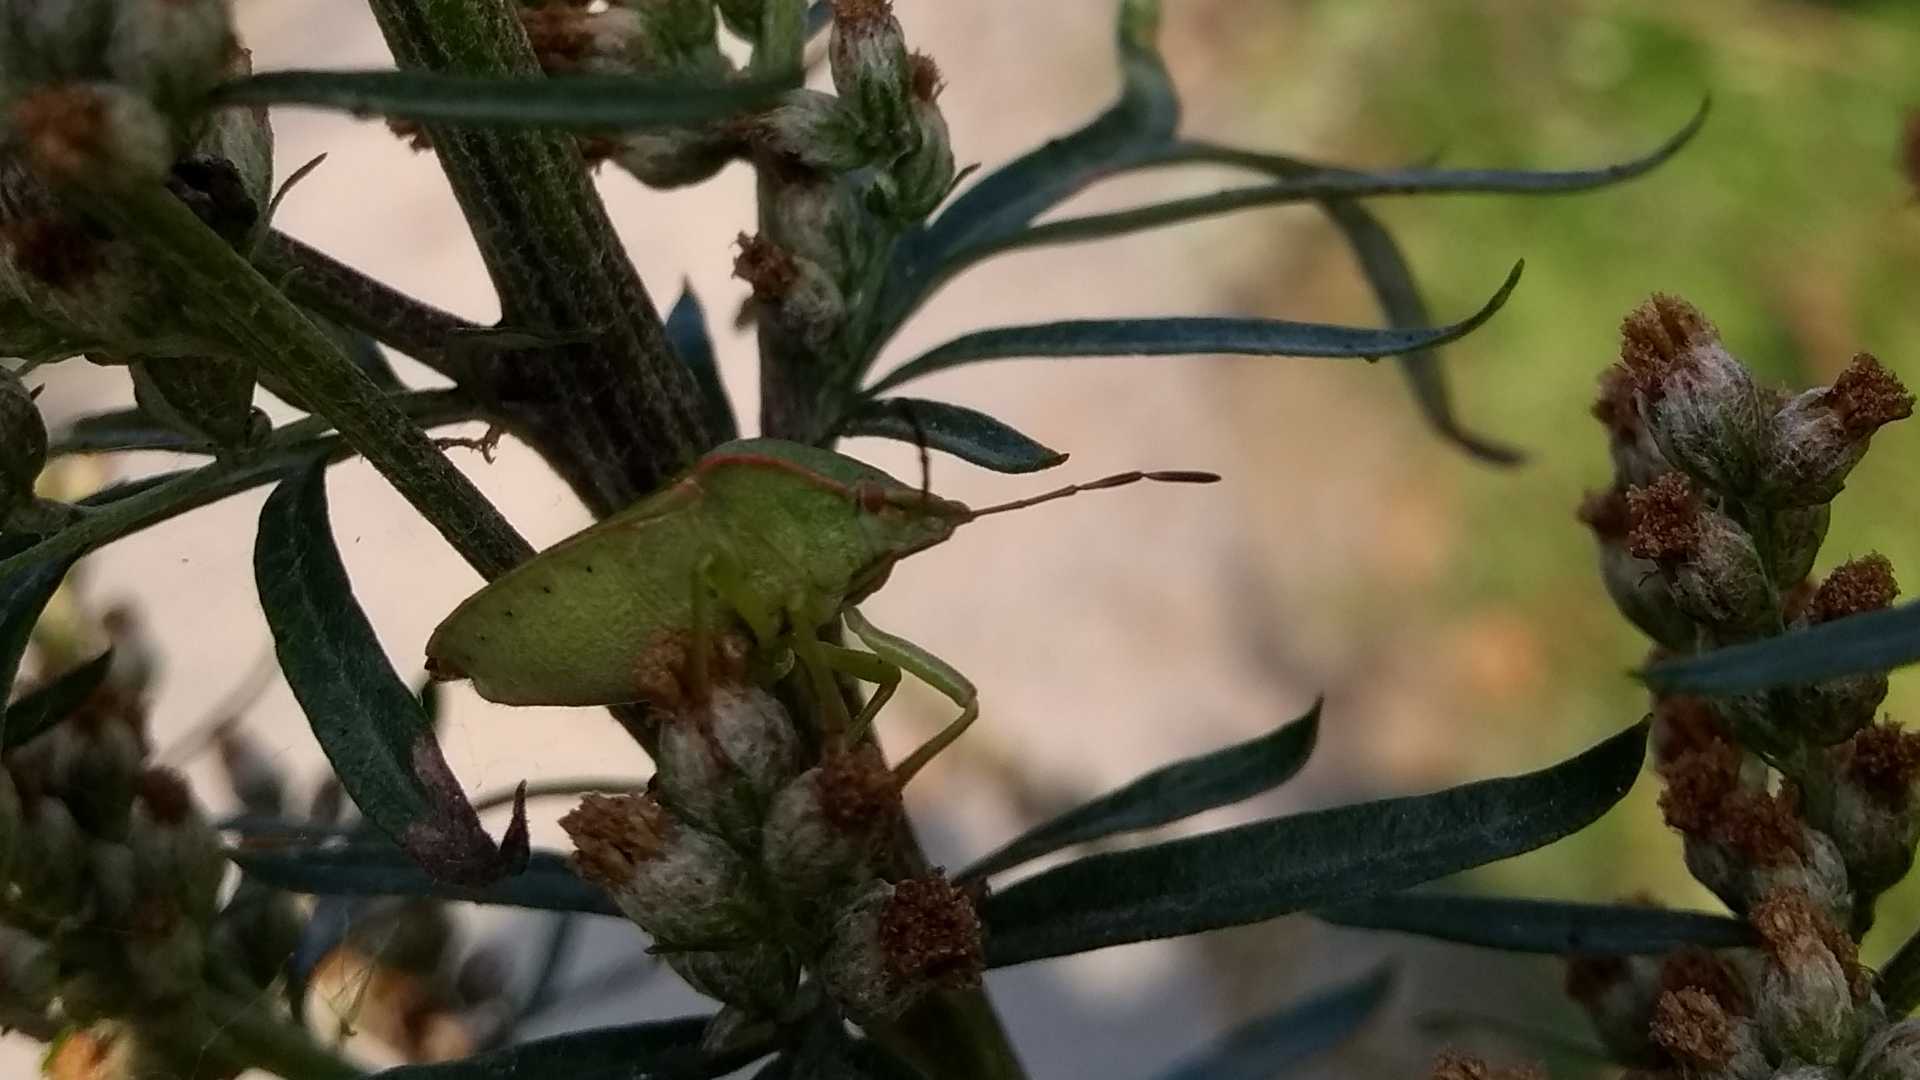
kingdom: Animalia
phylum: Arthropoda
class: Insecta
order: Hemiptera
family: Pentatomidae
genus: Palomena
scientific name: Palomena prasina
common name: Green shieldbug
